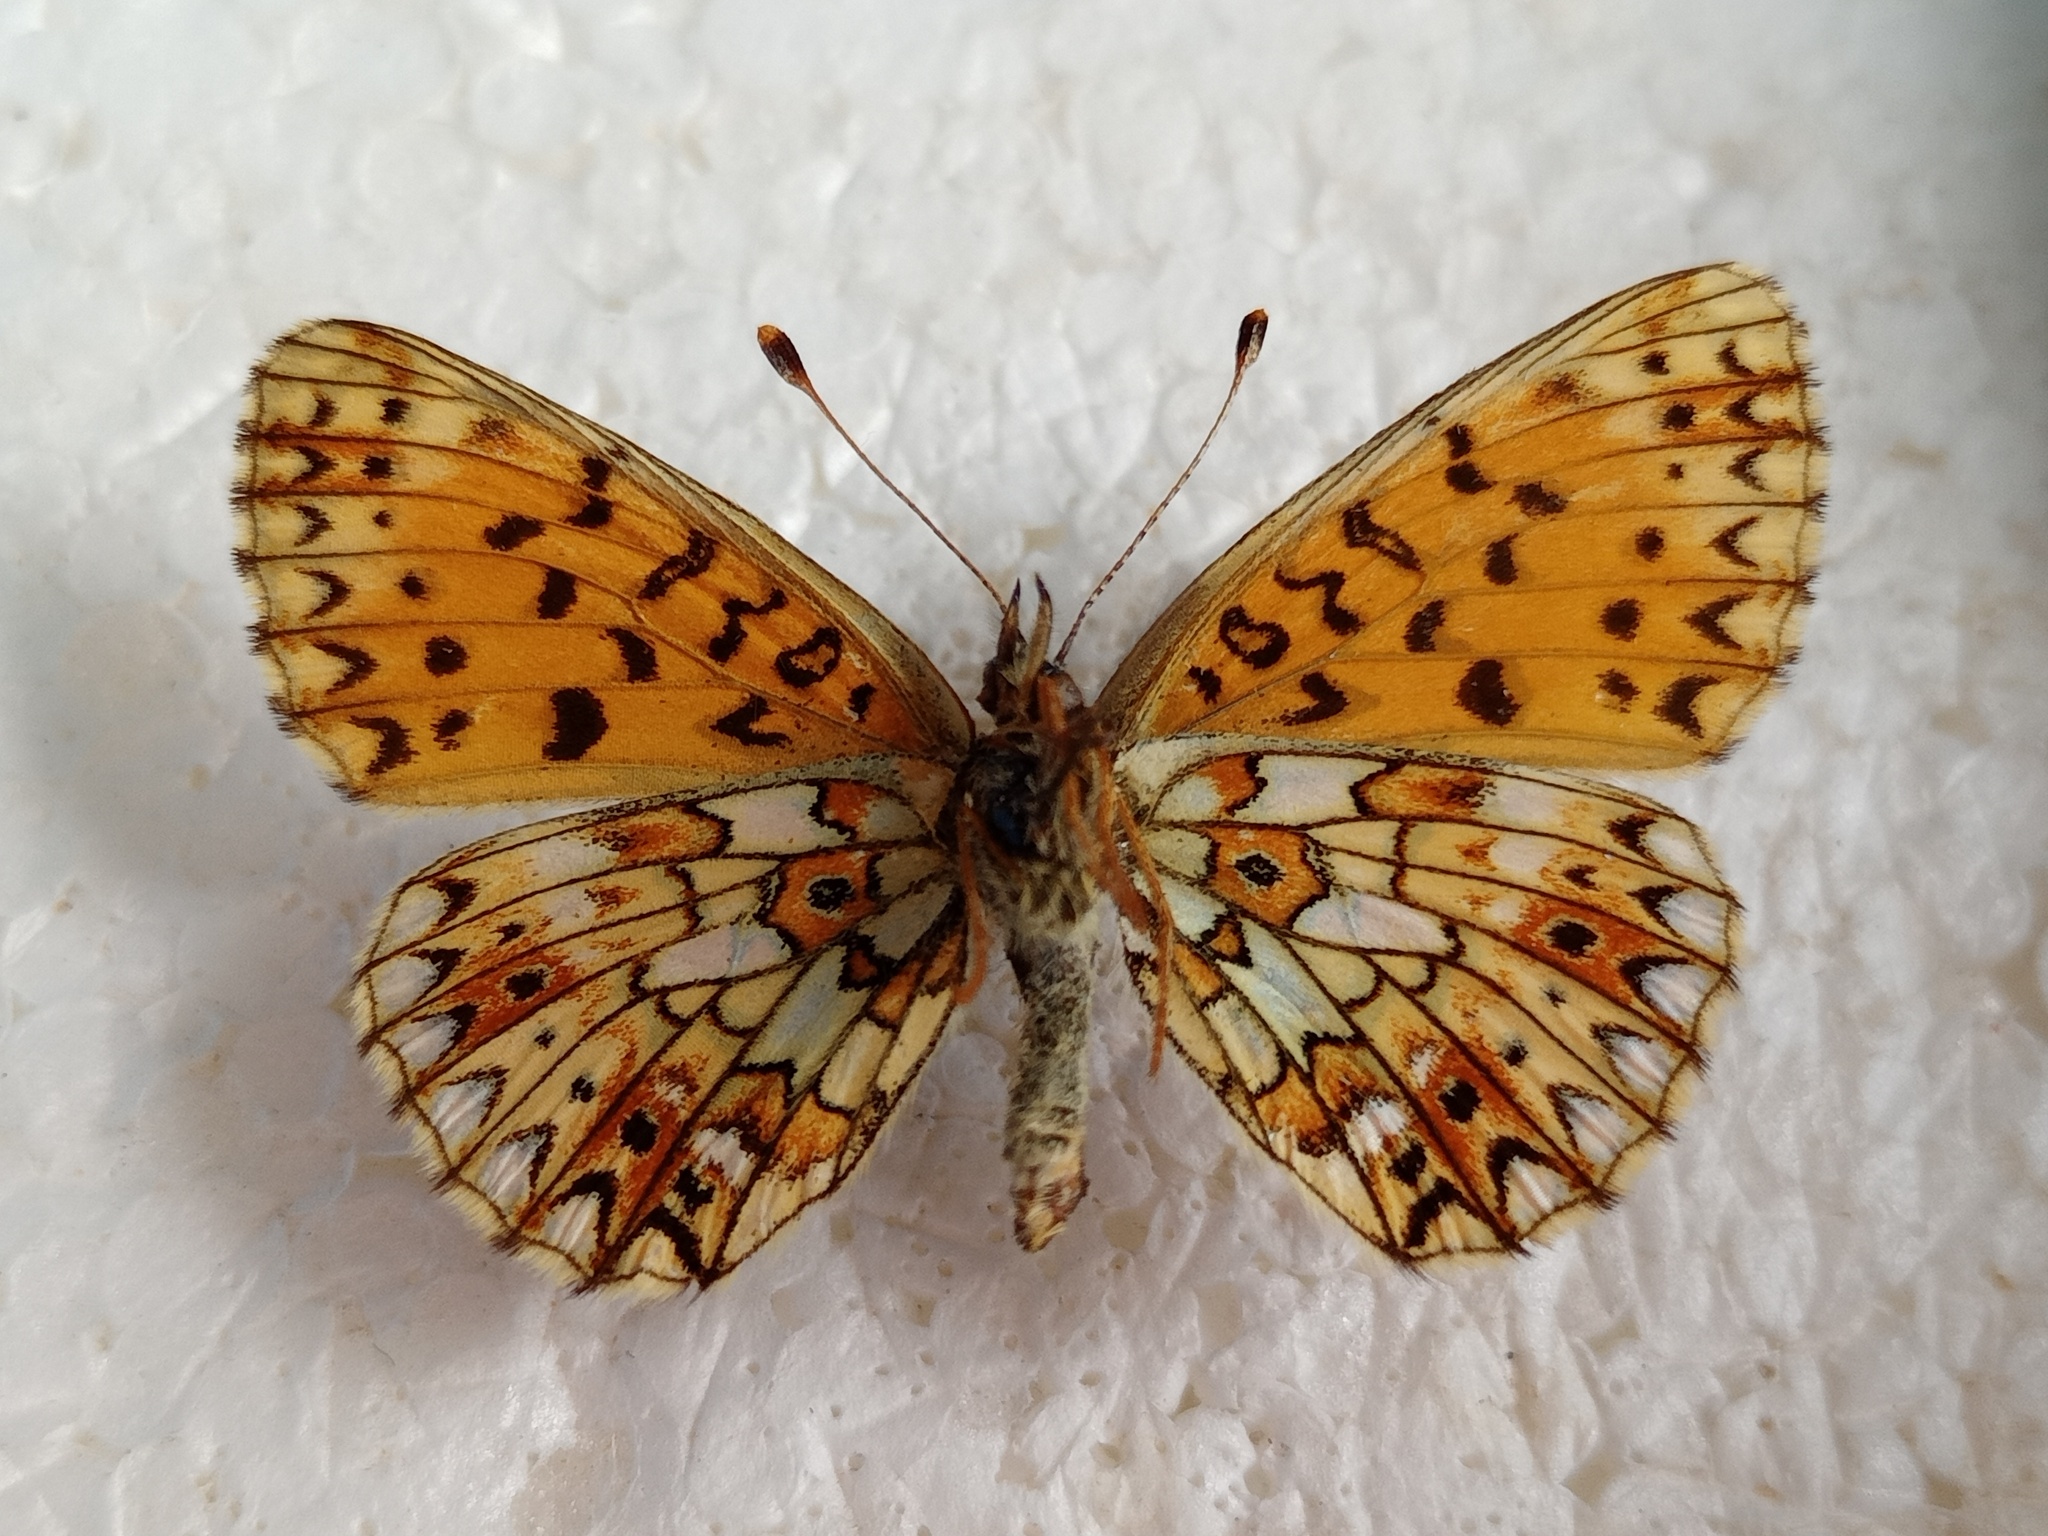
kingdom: Animalia
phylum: Arthropoda
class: Insecta
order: Lepidoptera
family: Nymphalidae
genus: Boloria
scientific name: Boloria selene
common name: Small pearl-bordered fritillary
